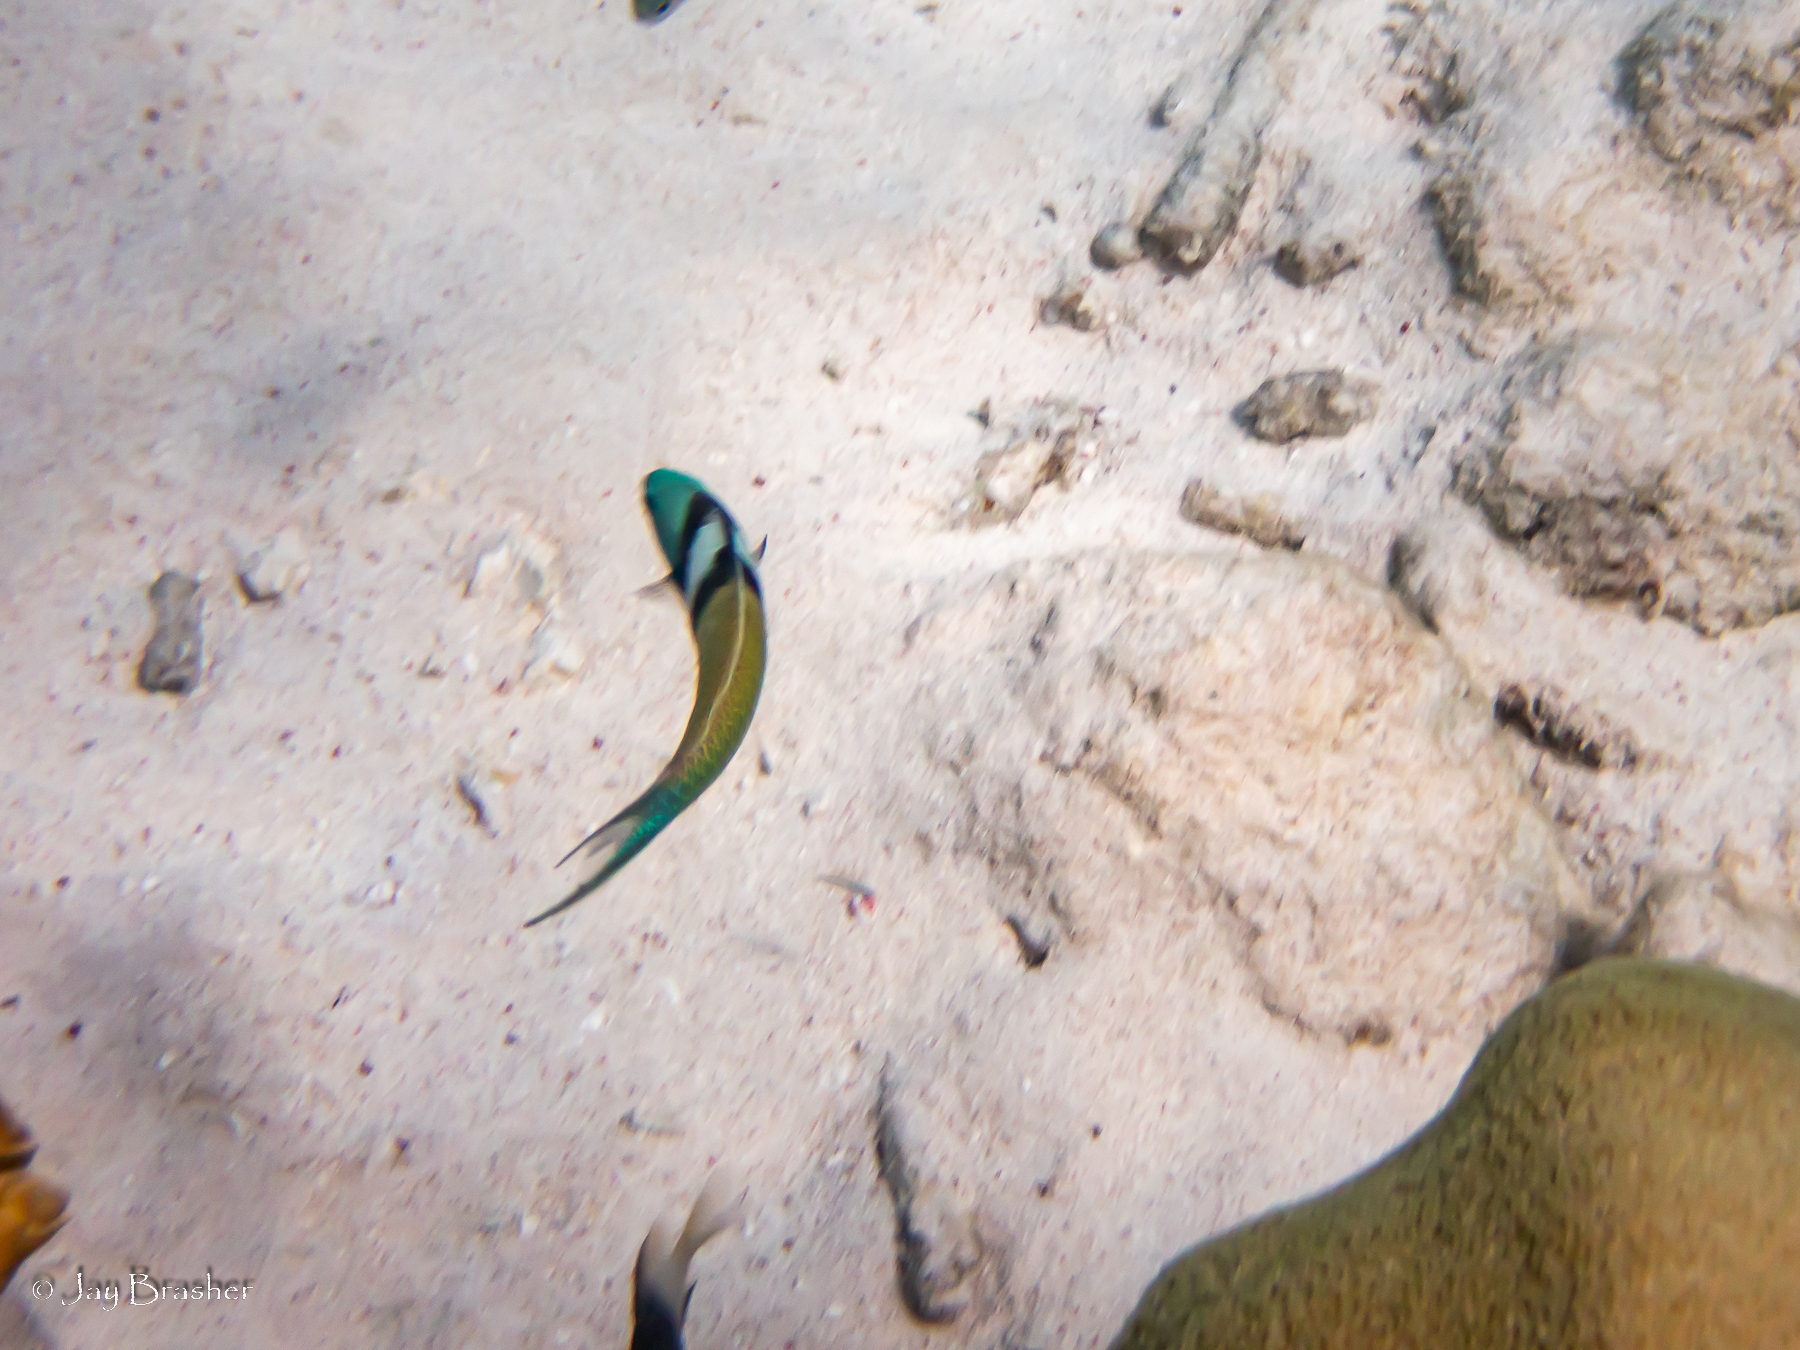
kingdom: Animalia
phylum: Chordata
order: Perciformes
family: Labridae
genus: Thalassoma
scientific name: Thalassoma bifasciatum
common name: Bluehead wrasse
